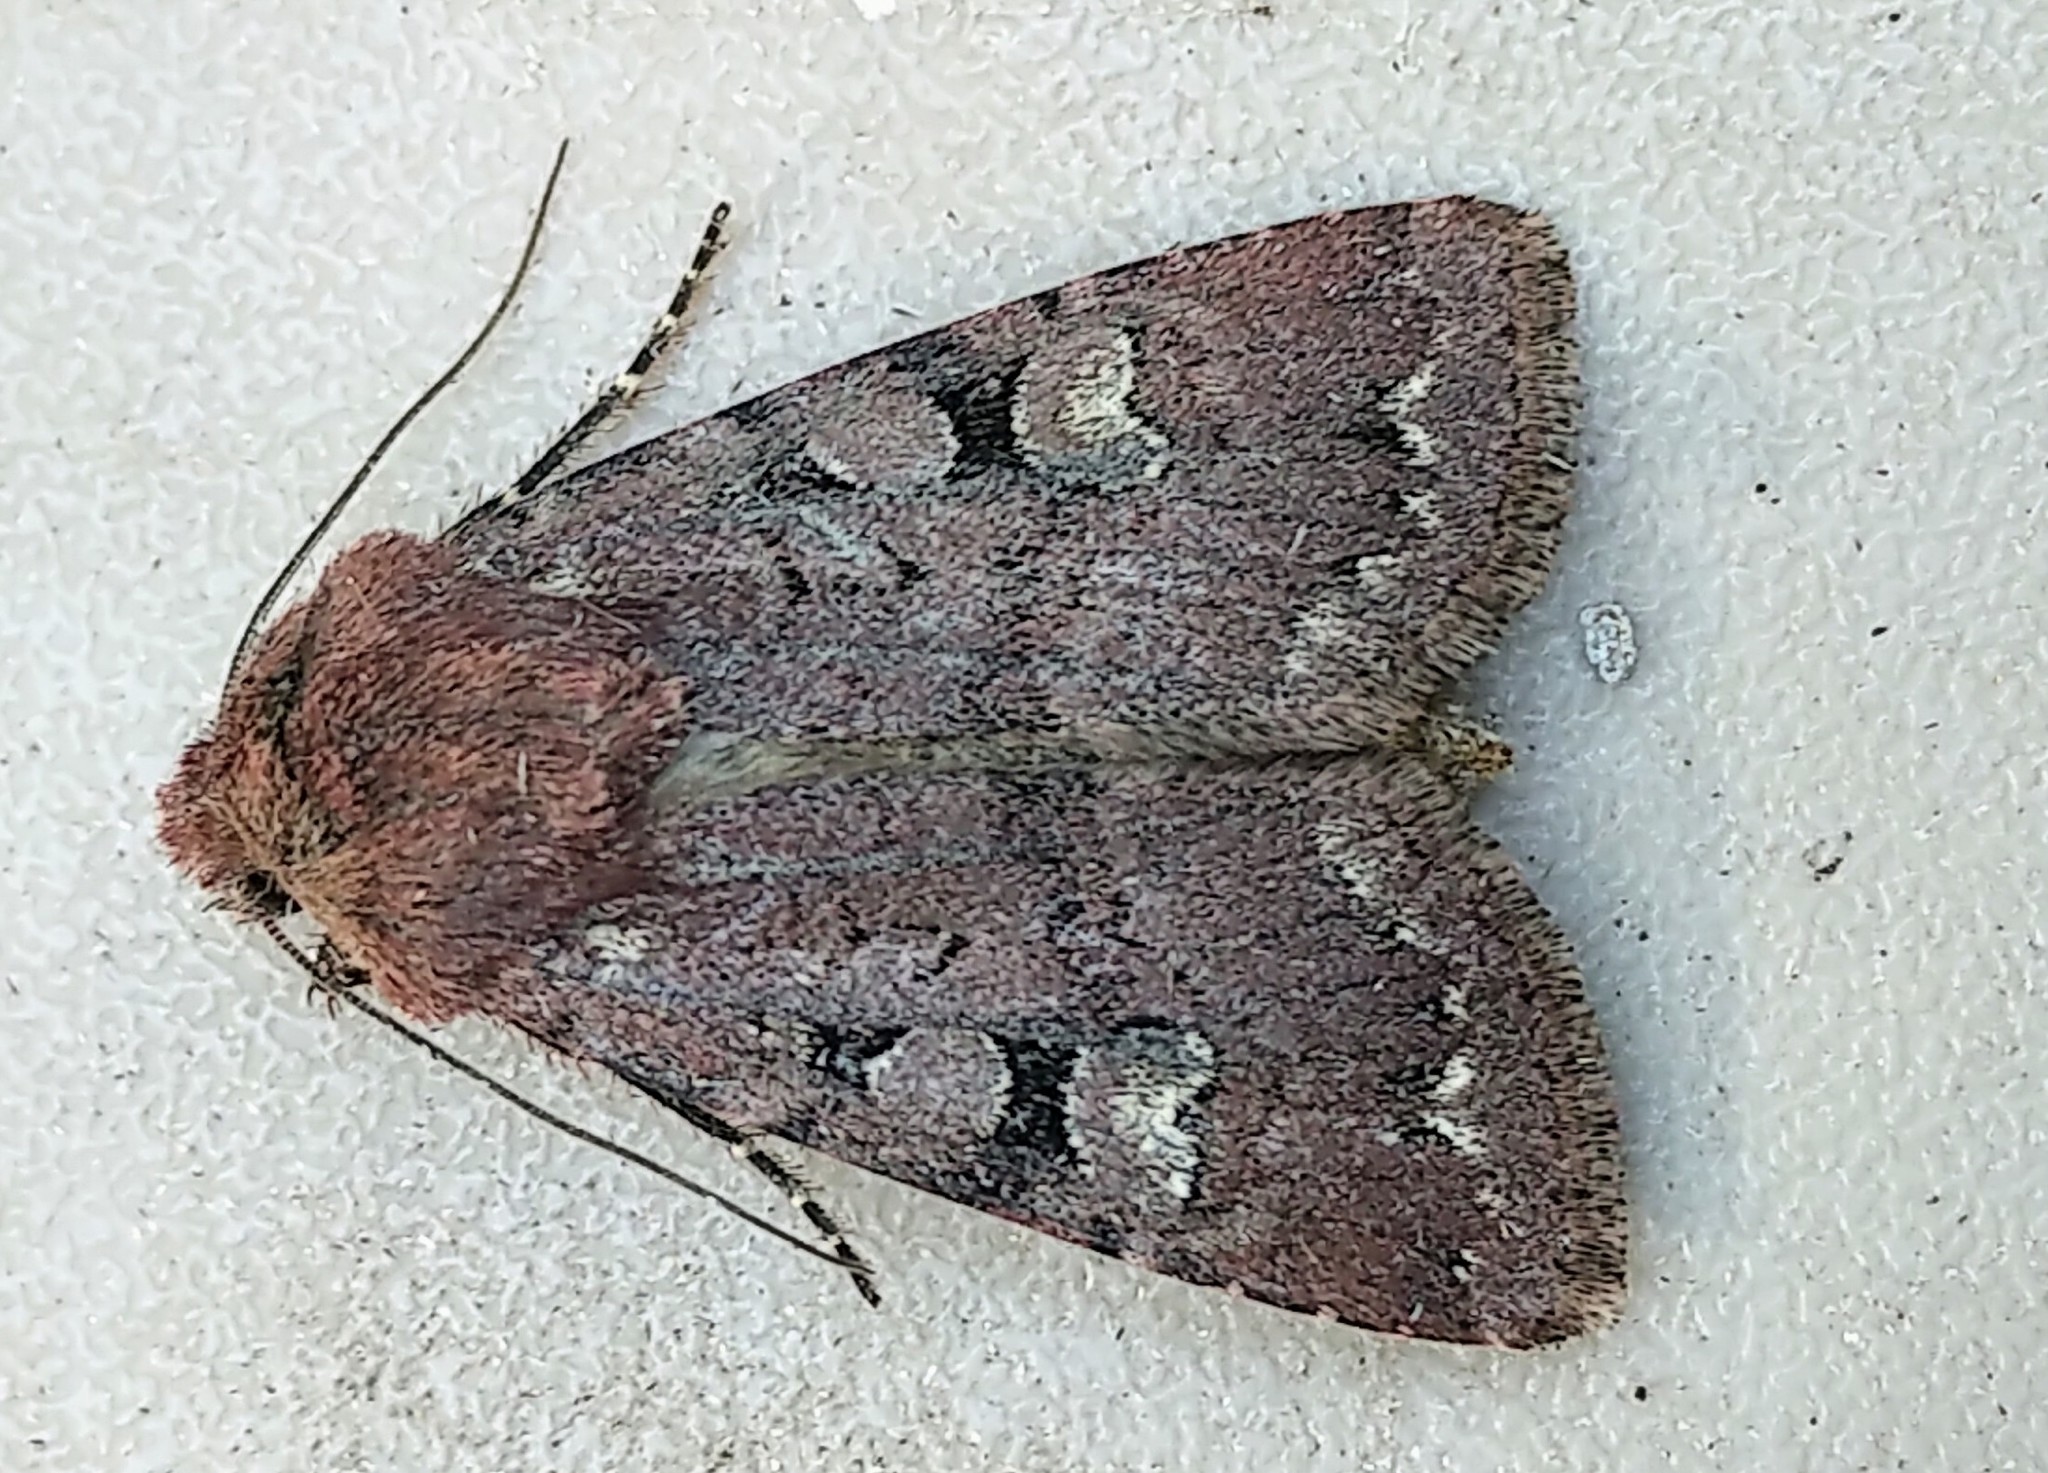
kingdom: Animalia
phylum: Arthropoda
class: Insecta
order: Lepidoptera
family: Noctuidae
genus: Euxoa
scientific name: Euxoa lewisi
